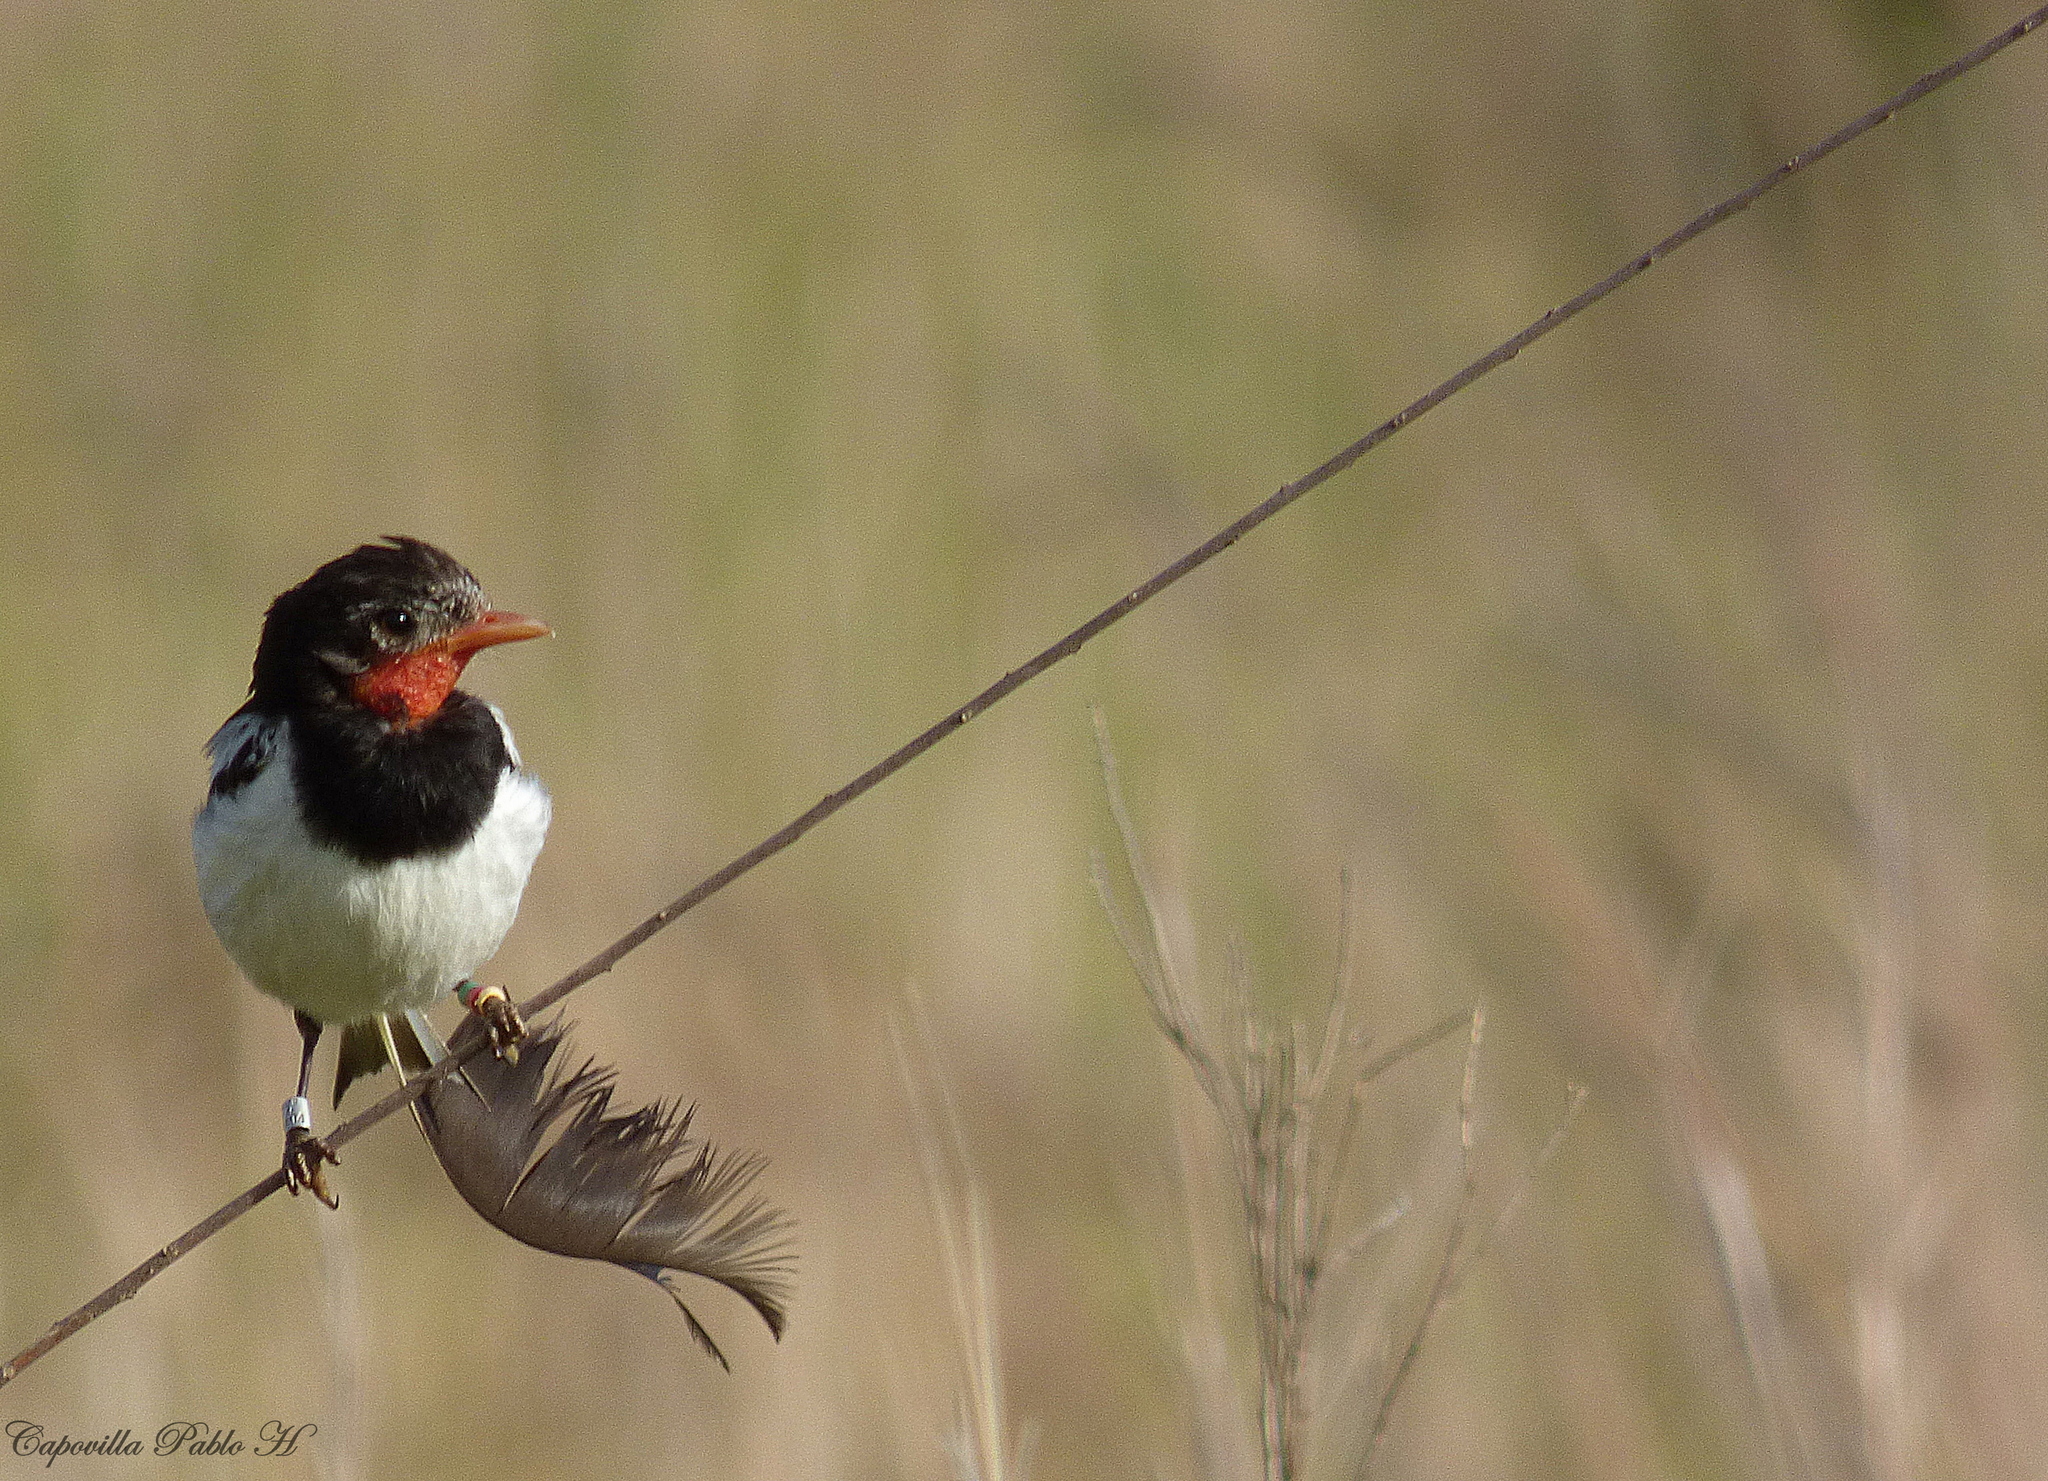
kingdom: Animalia
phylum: Chordata
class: Aves
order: Passeriformes
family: Tyrannidae
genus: Alectrurus
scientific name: Alectrurus risora
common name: Strange-tailed tyrant
